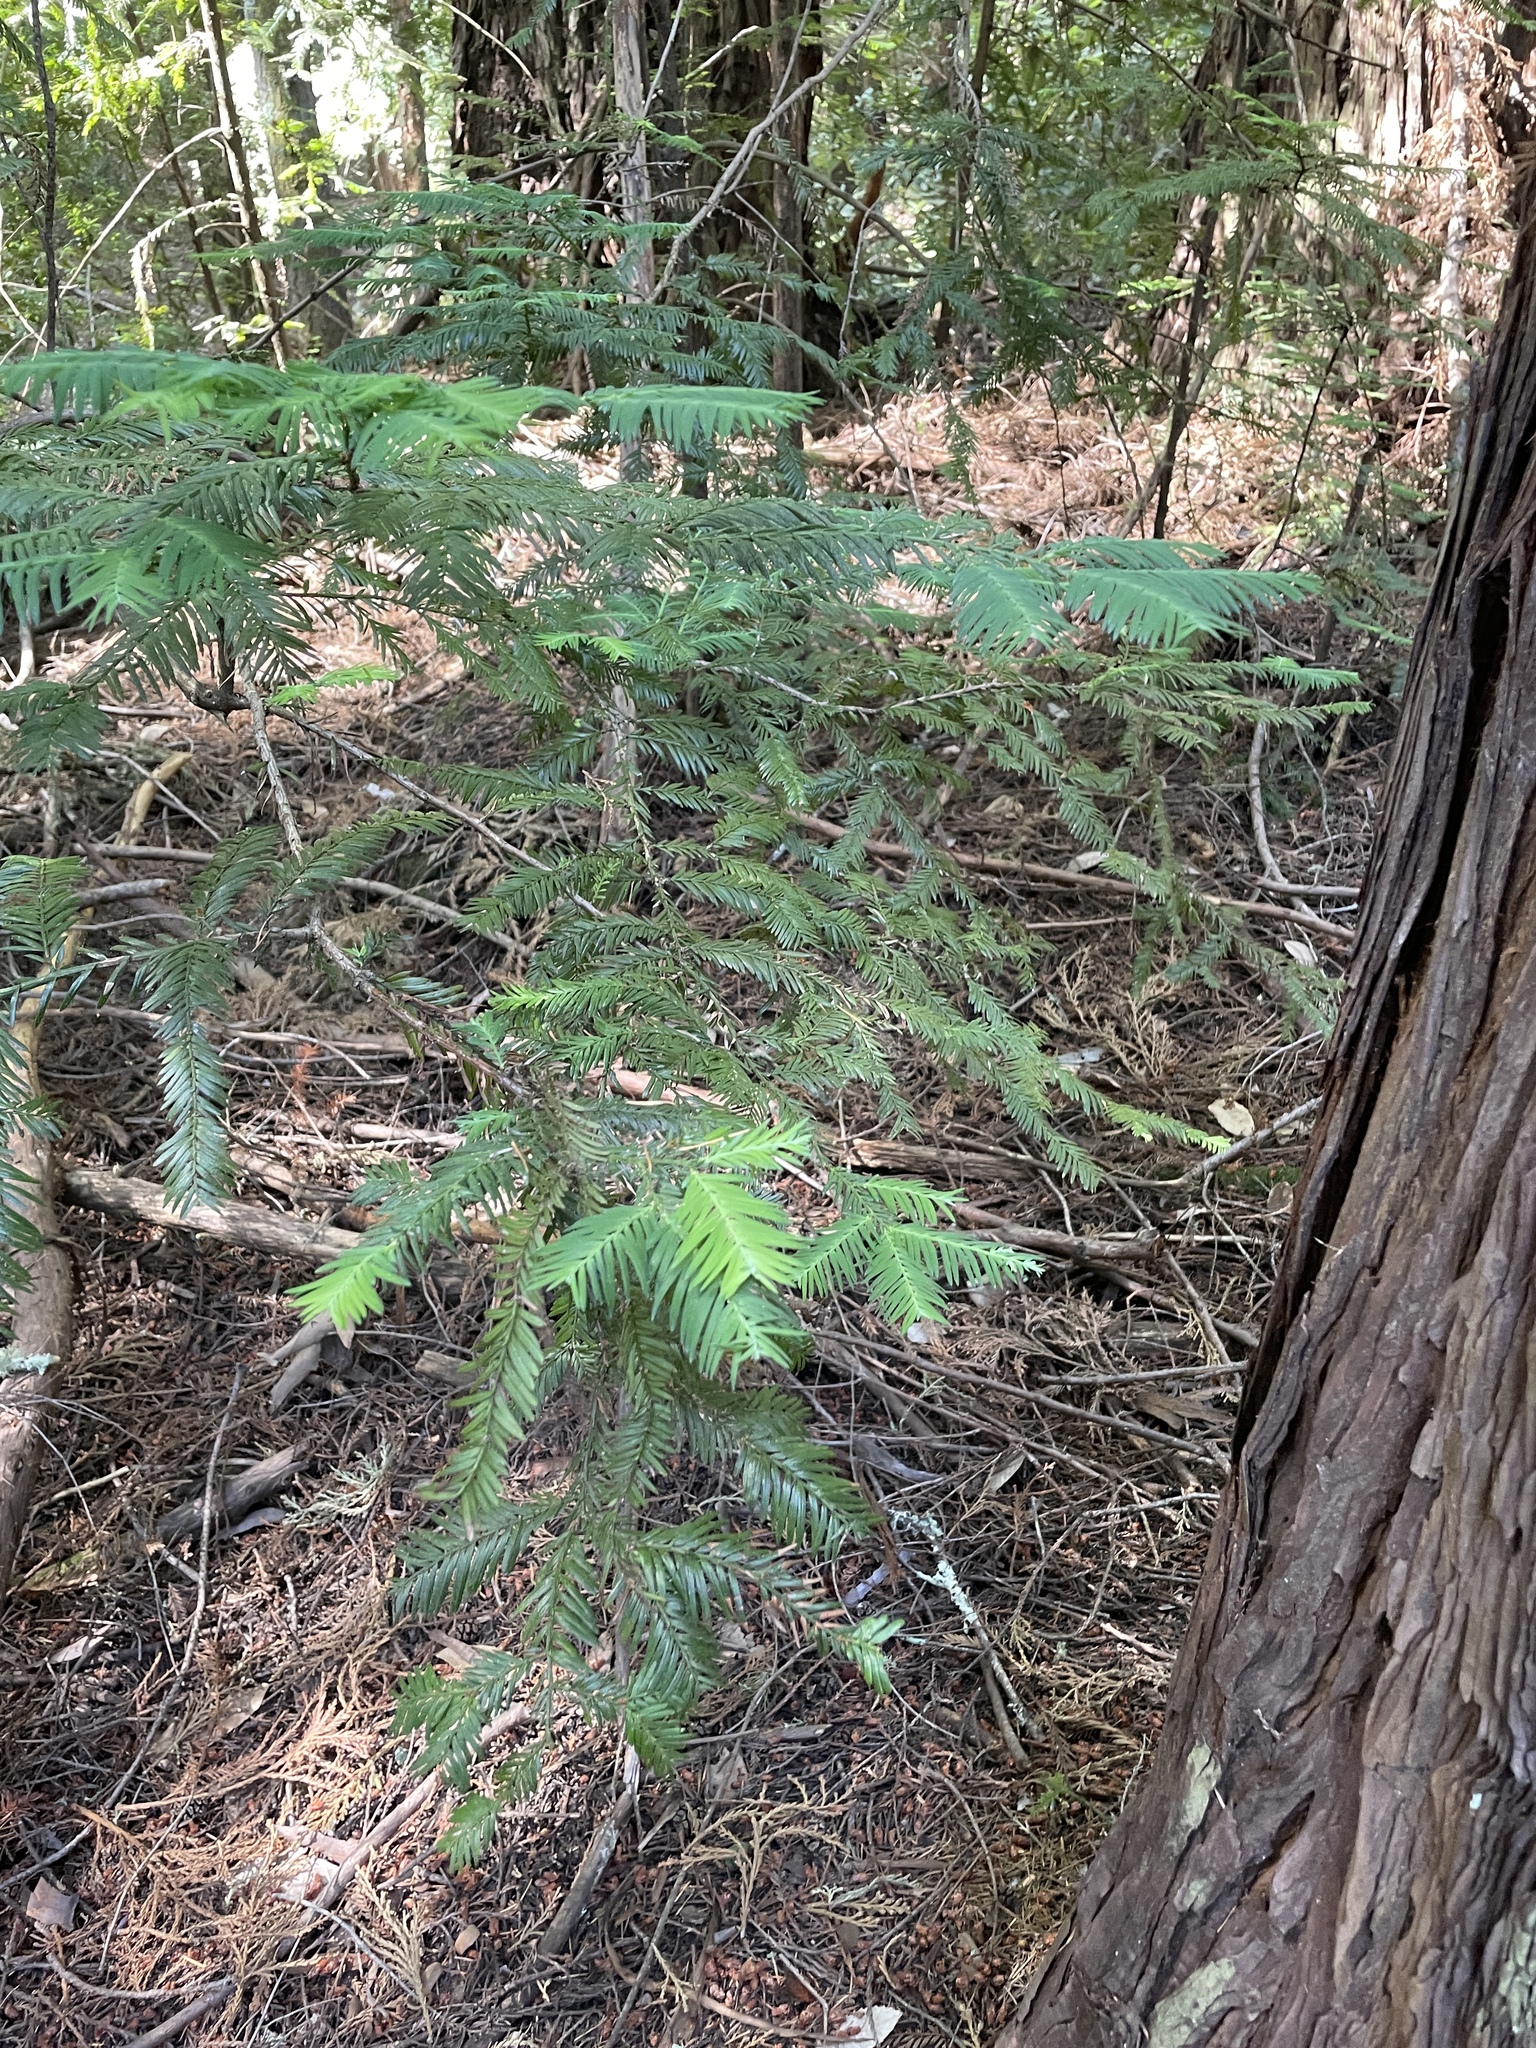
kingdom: Plantae
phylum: Tracheophyta
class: Pinopsida
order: Pinales
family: Cupressaceae
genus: Sequoia
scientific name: Sequoia sempervirens
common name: Coast redwood
